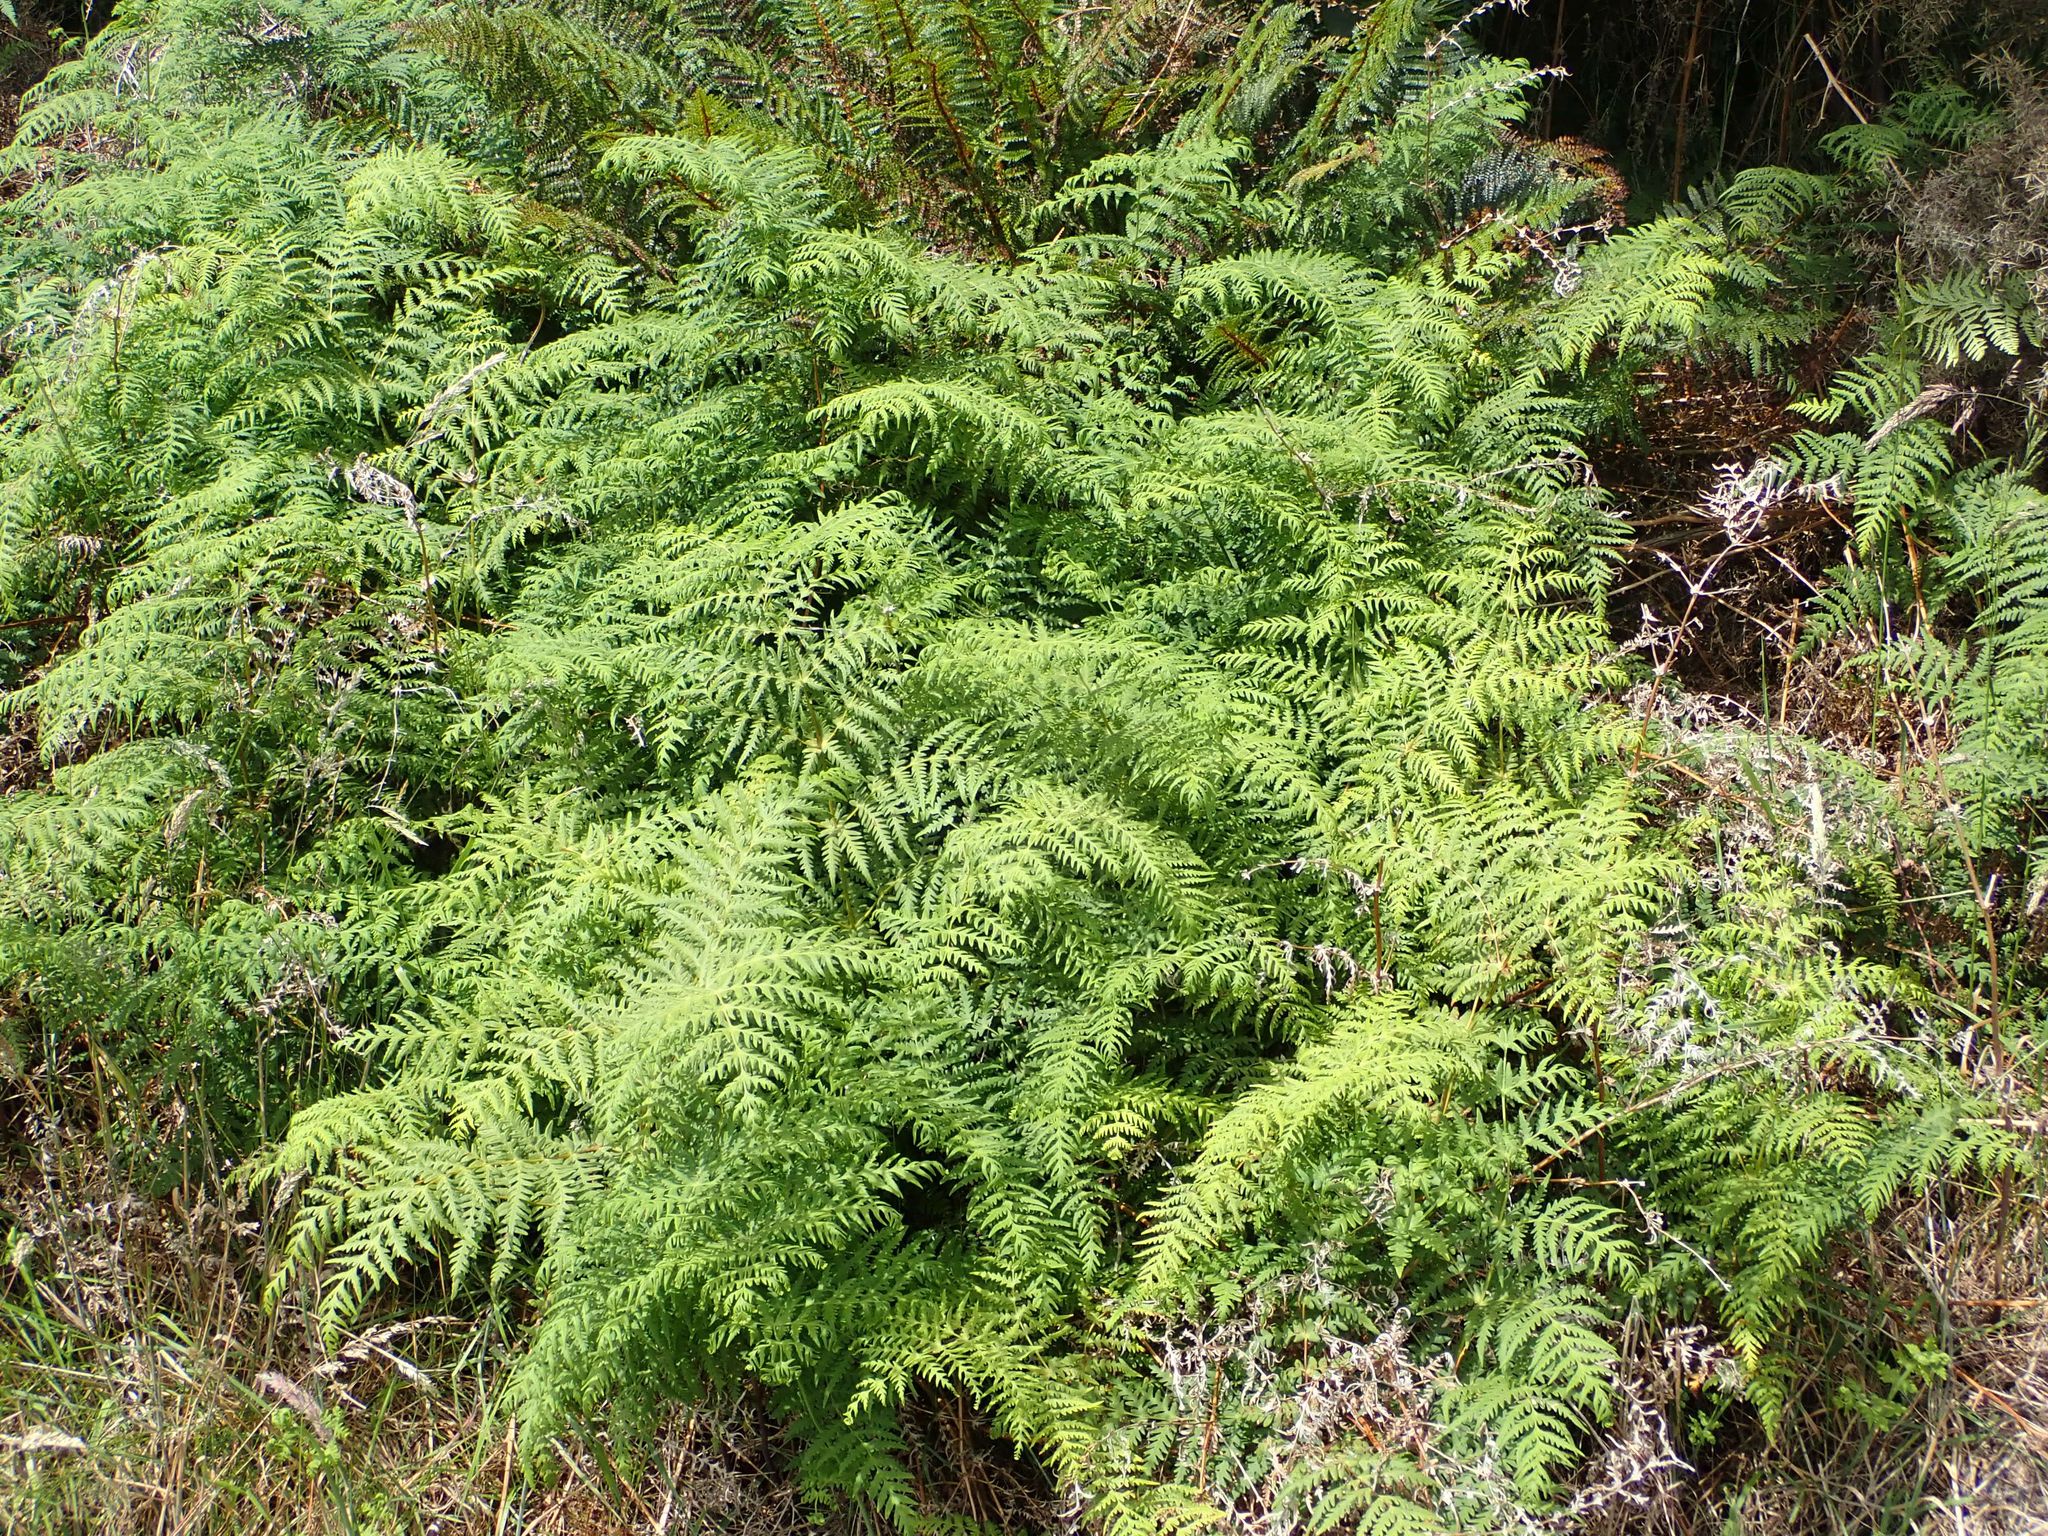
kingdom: Plantae
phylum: Tracheophyta
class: Polypodiopsida
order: Polypodiales
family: Dennstaedtiaceae
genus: Histiopteris
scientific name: Histiopteris incisa
